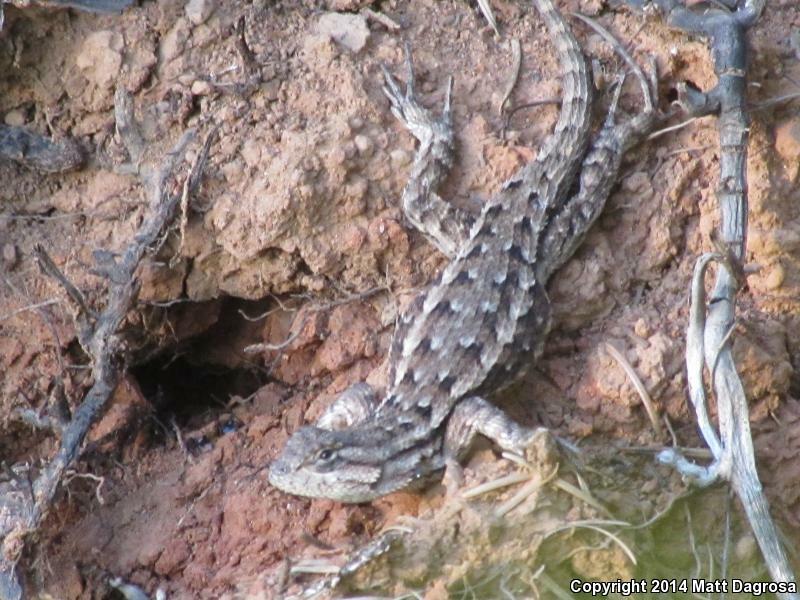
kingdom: Animalia
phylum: Chordata
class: Squamata
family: Phrynosomatidae
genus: Sceloporus
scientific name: Sceloporus occidentalis
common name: Western fence lizard
